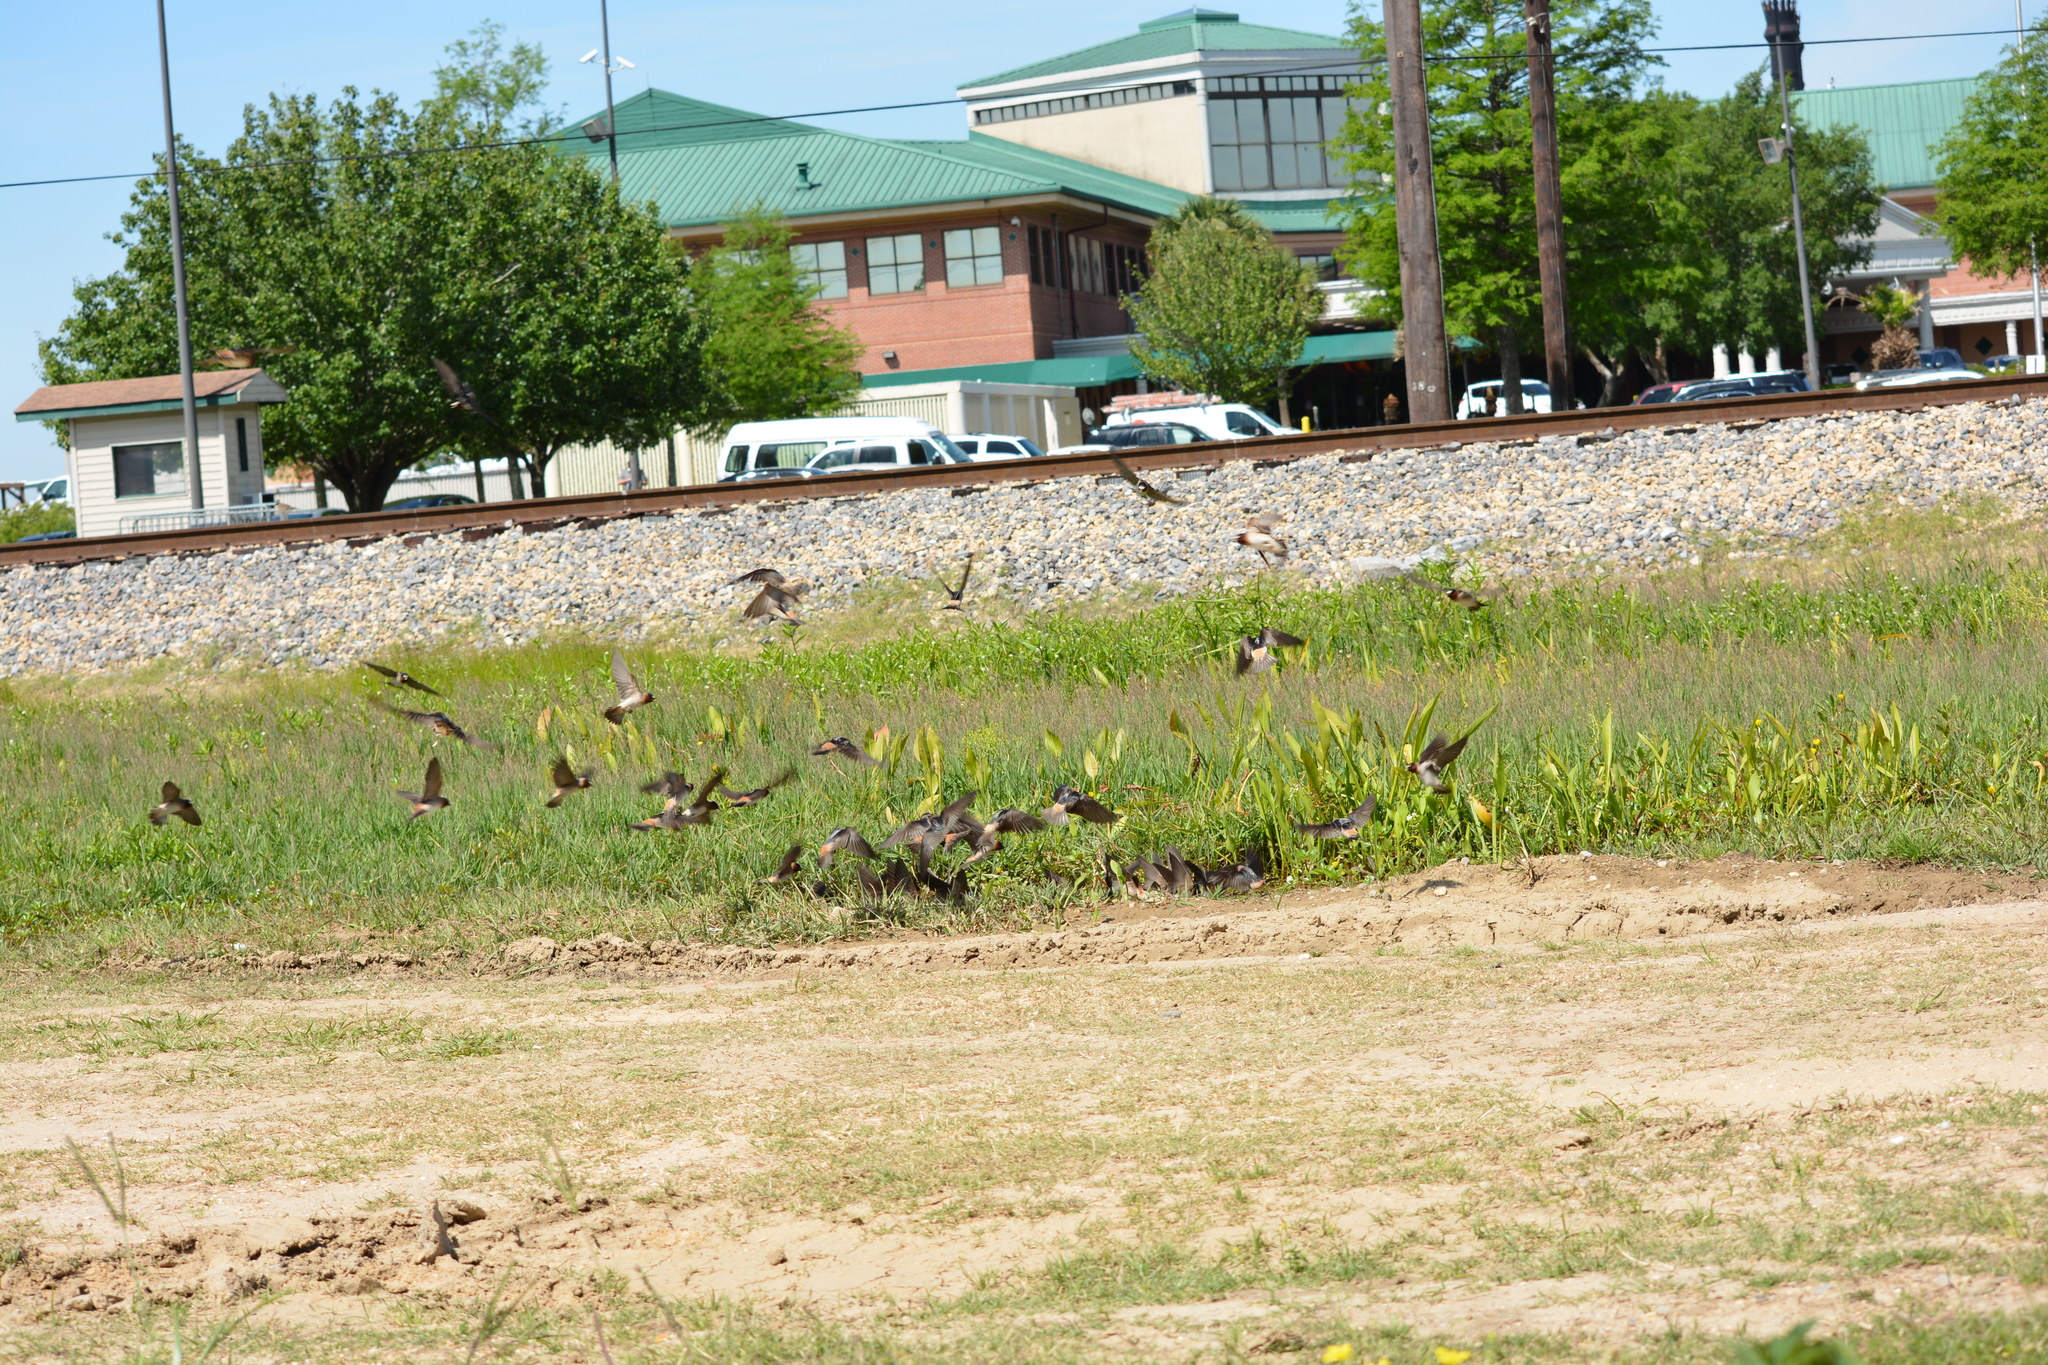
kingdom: Animalia
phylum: Chordata
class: Aves
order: Passeriformes
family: Hirundinidae
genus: Petrochelidon
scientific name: Petrochelidon pyrrhonota
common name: American cliff swallow
